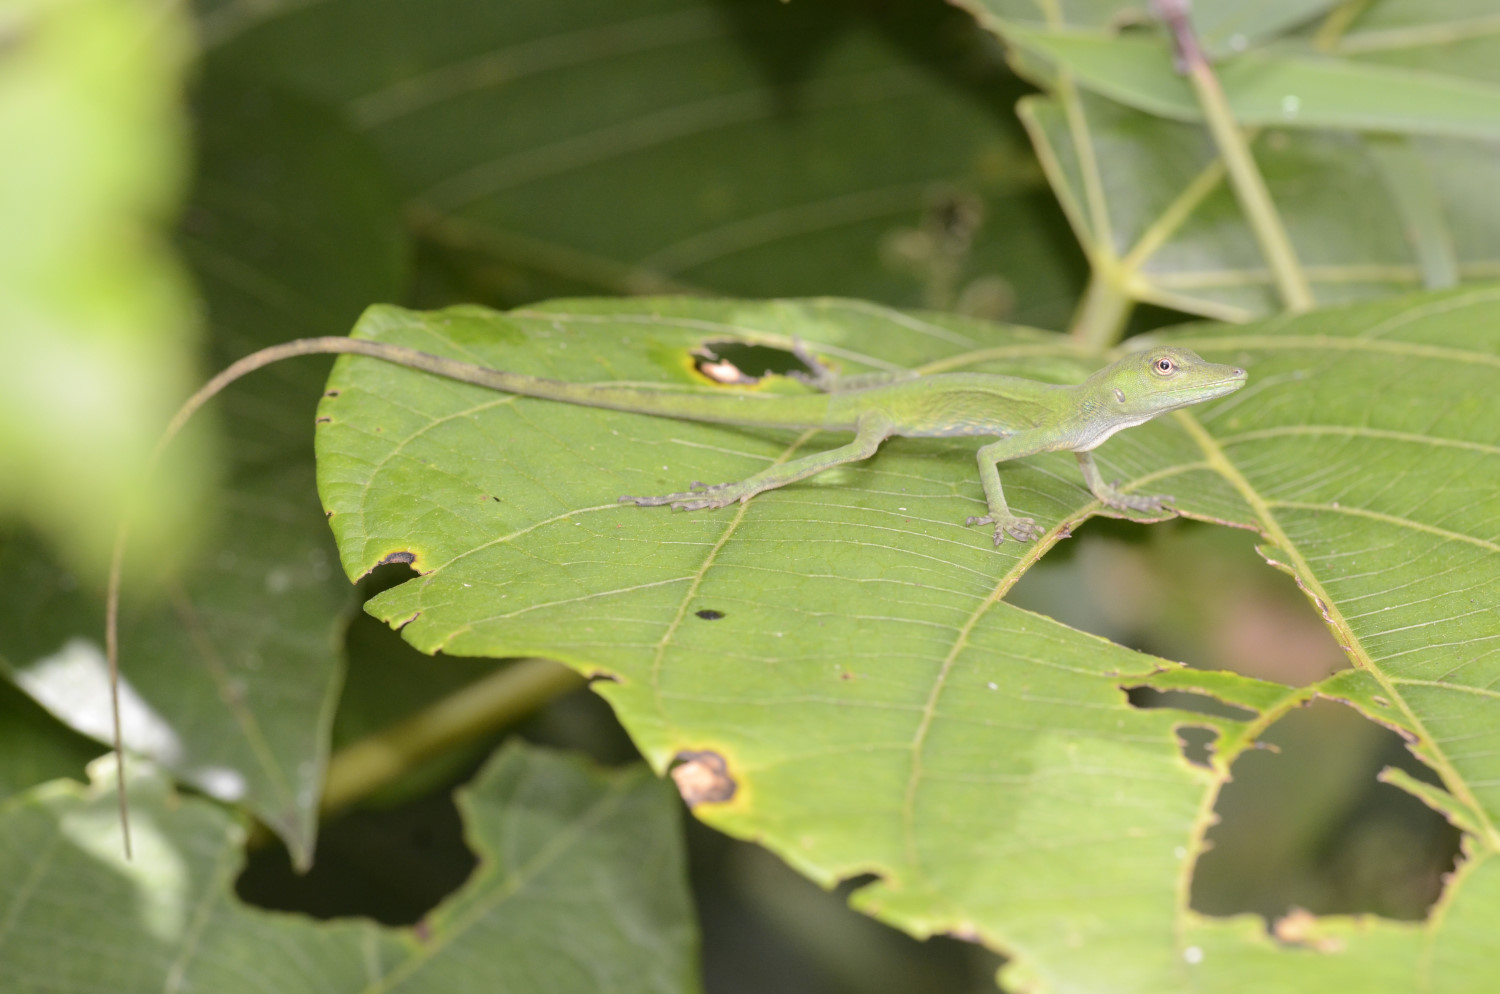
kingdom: Animalia
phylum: Chordata
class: Squamata
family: Dactyloidae
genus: Anolis
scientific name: Anolis cuscoensis
